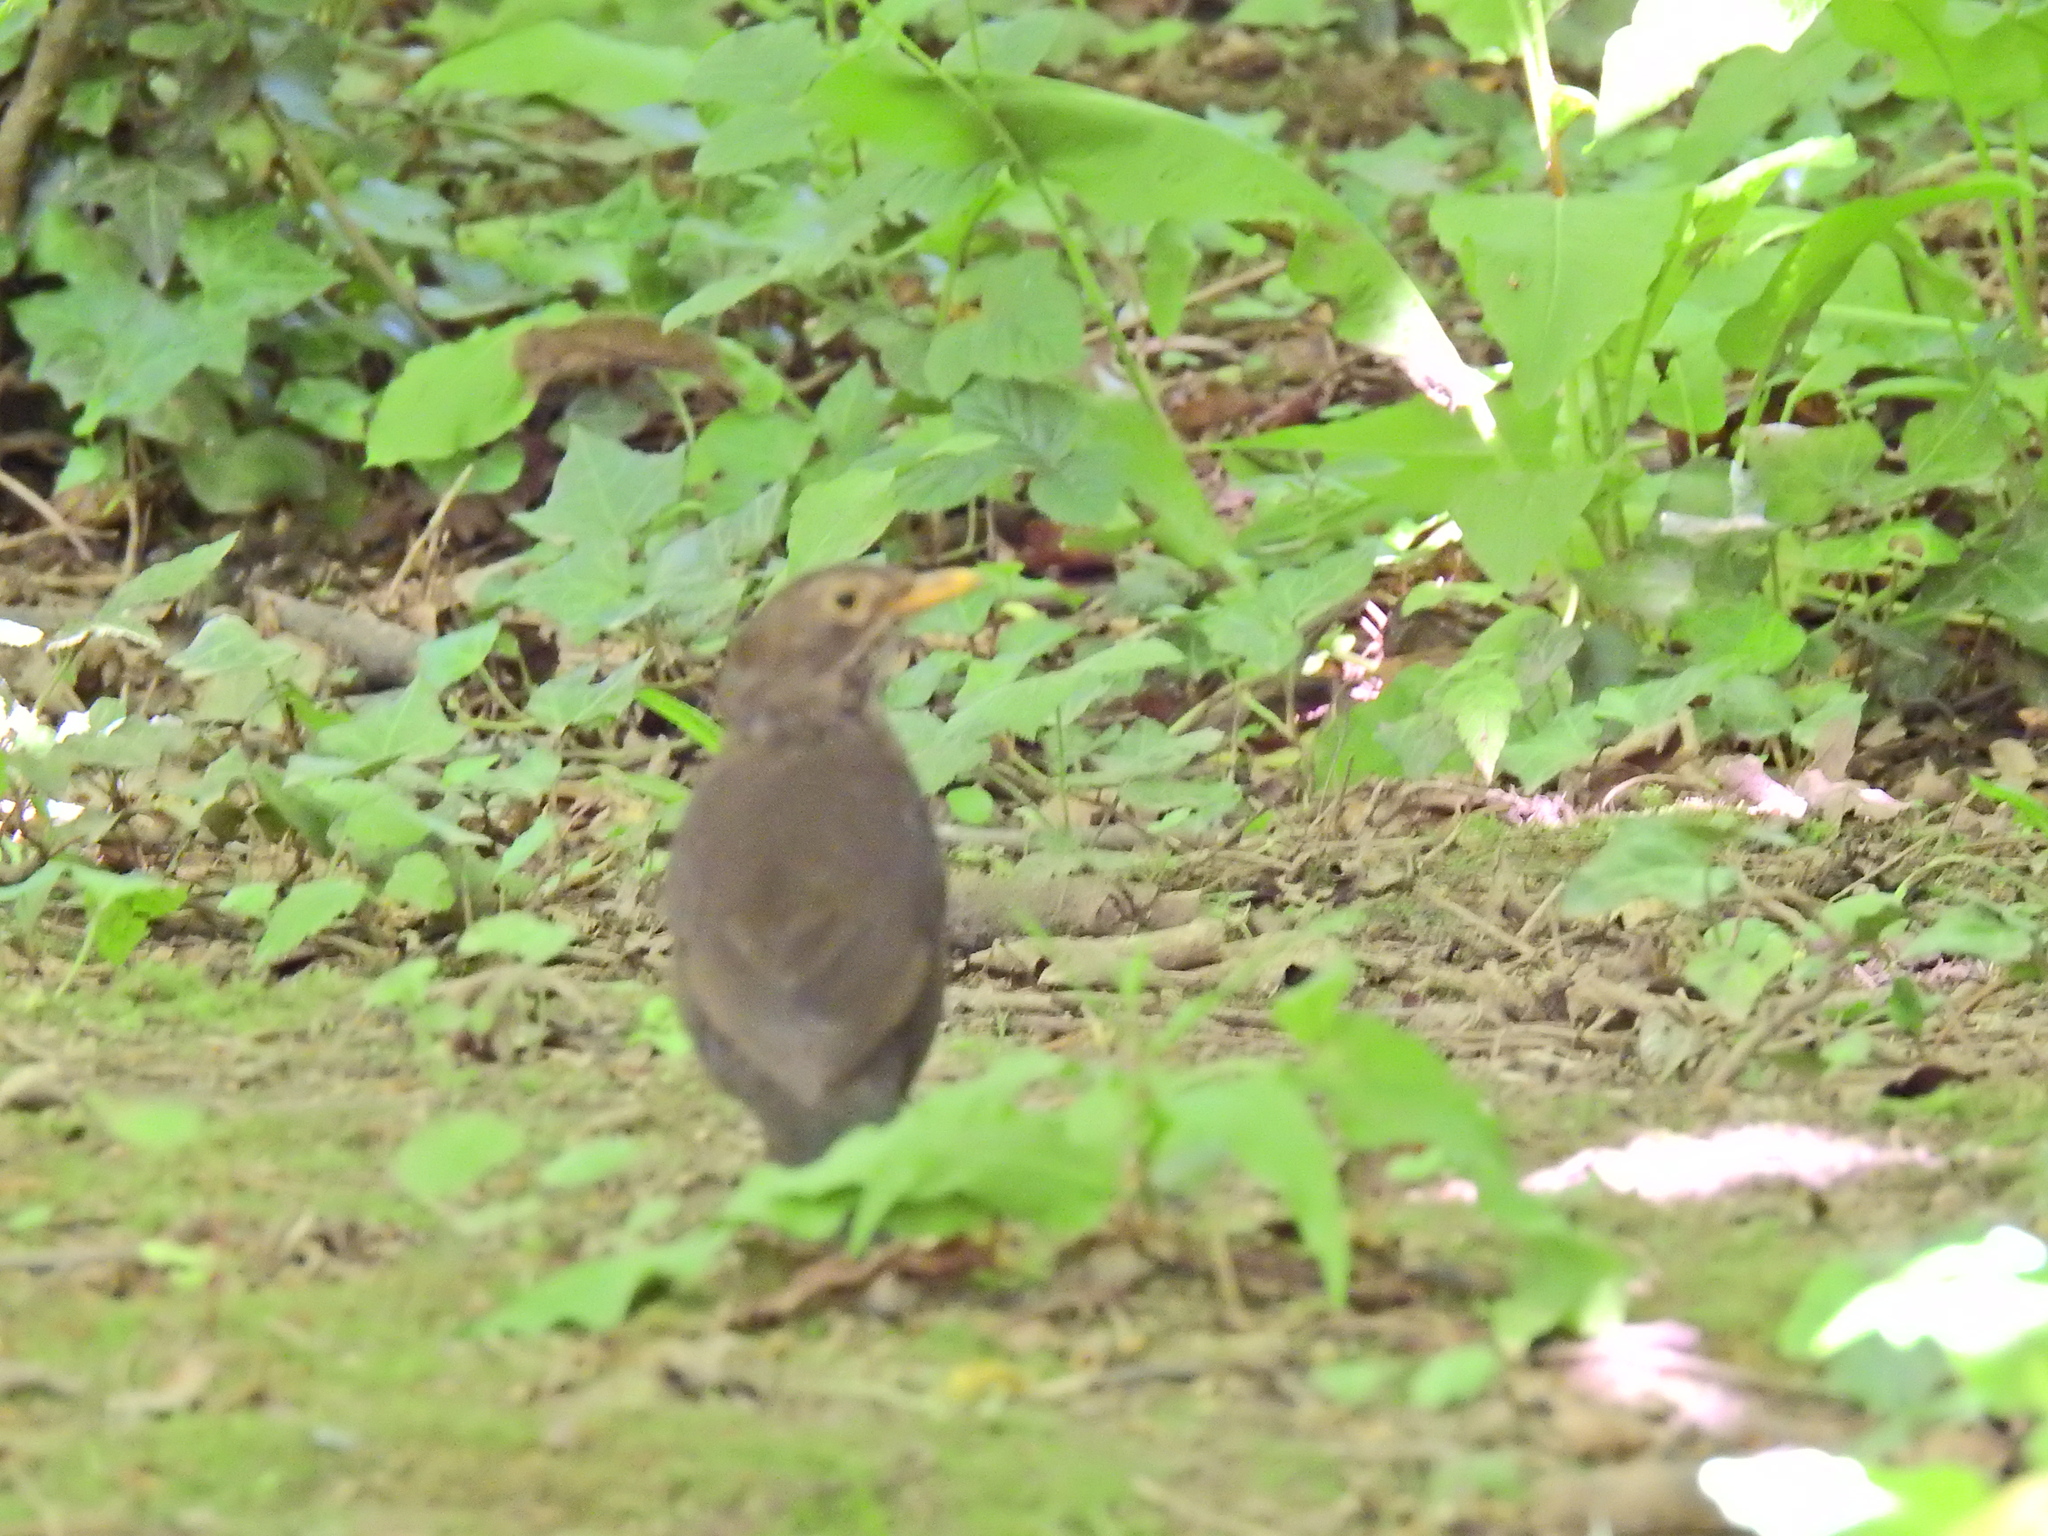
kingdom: Animalia
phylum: Chordata
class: Aves
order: Passeriformes
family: Turdidae
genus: Turdus
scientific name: Turdus merula
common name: Common blackbird
